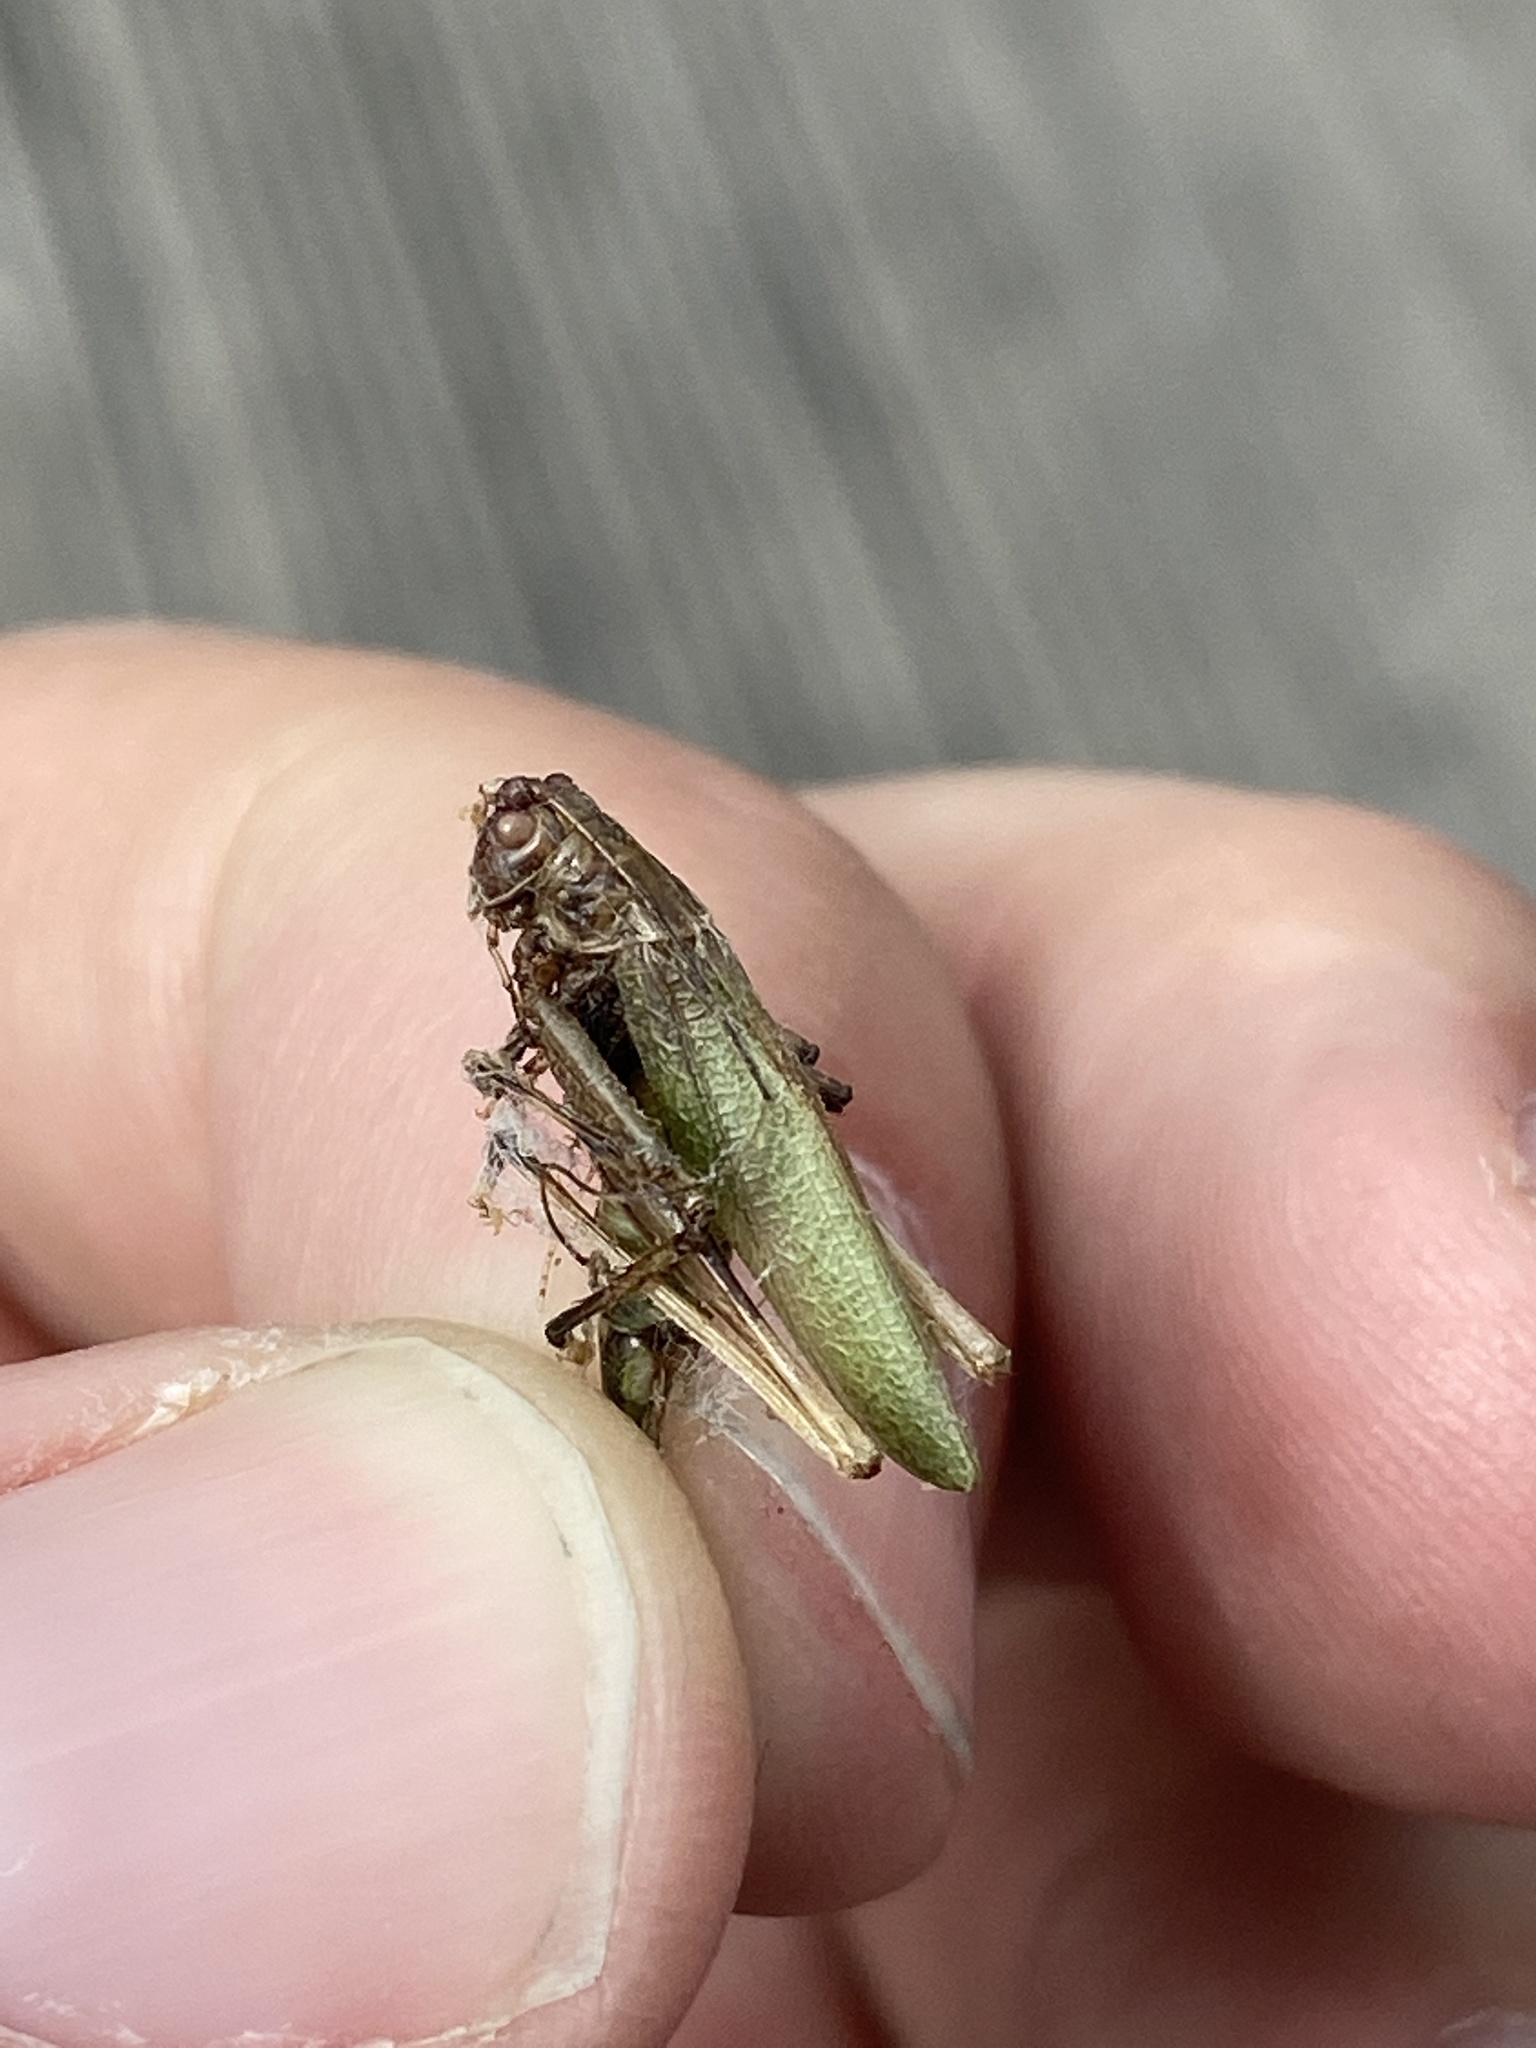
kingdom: Animalia
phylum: Arthropoda
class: Insecta
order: Orthoptera
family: Tettigoniidae
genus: Meconema
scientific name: Meconema thalassinum
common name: Oak bush-cricket
